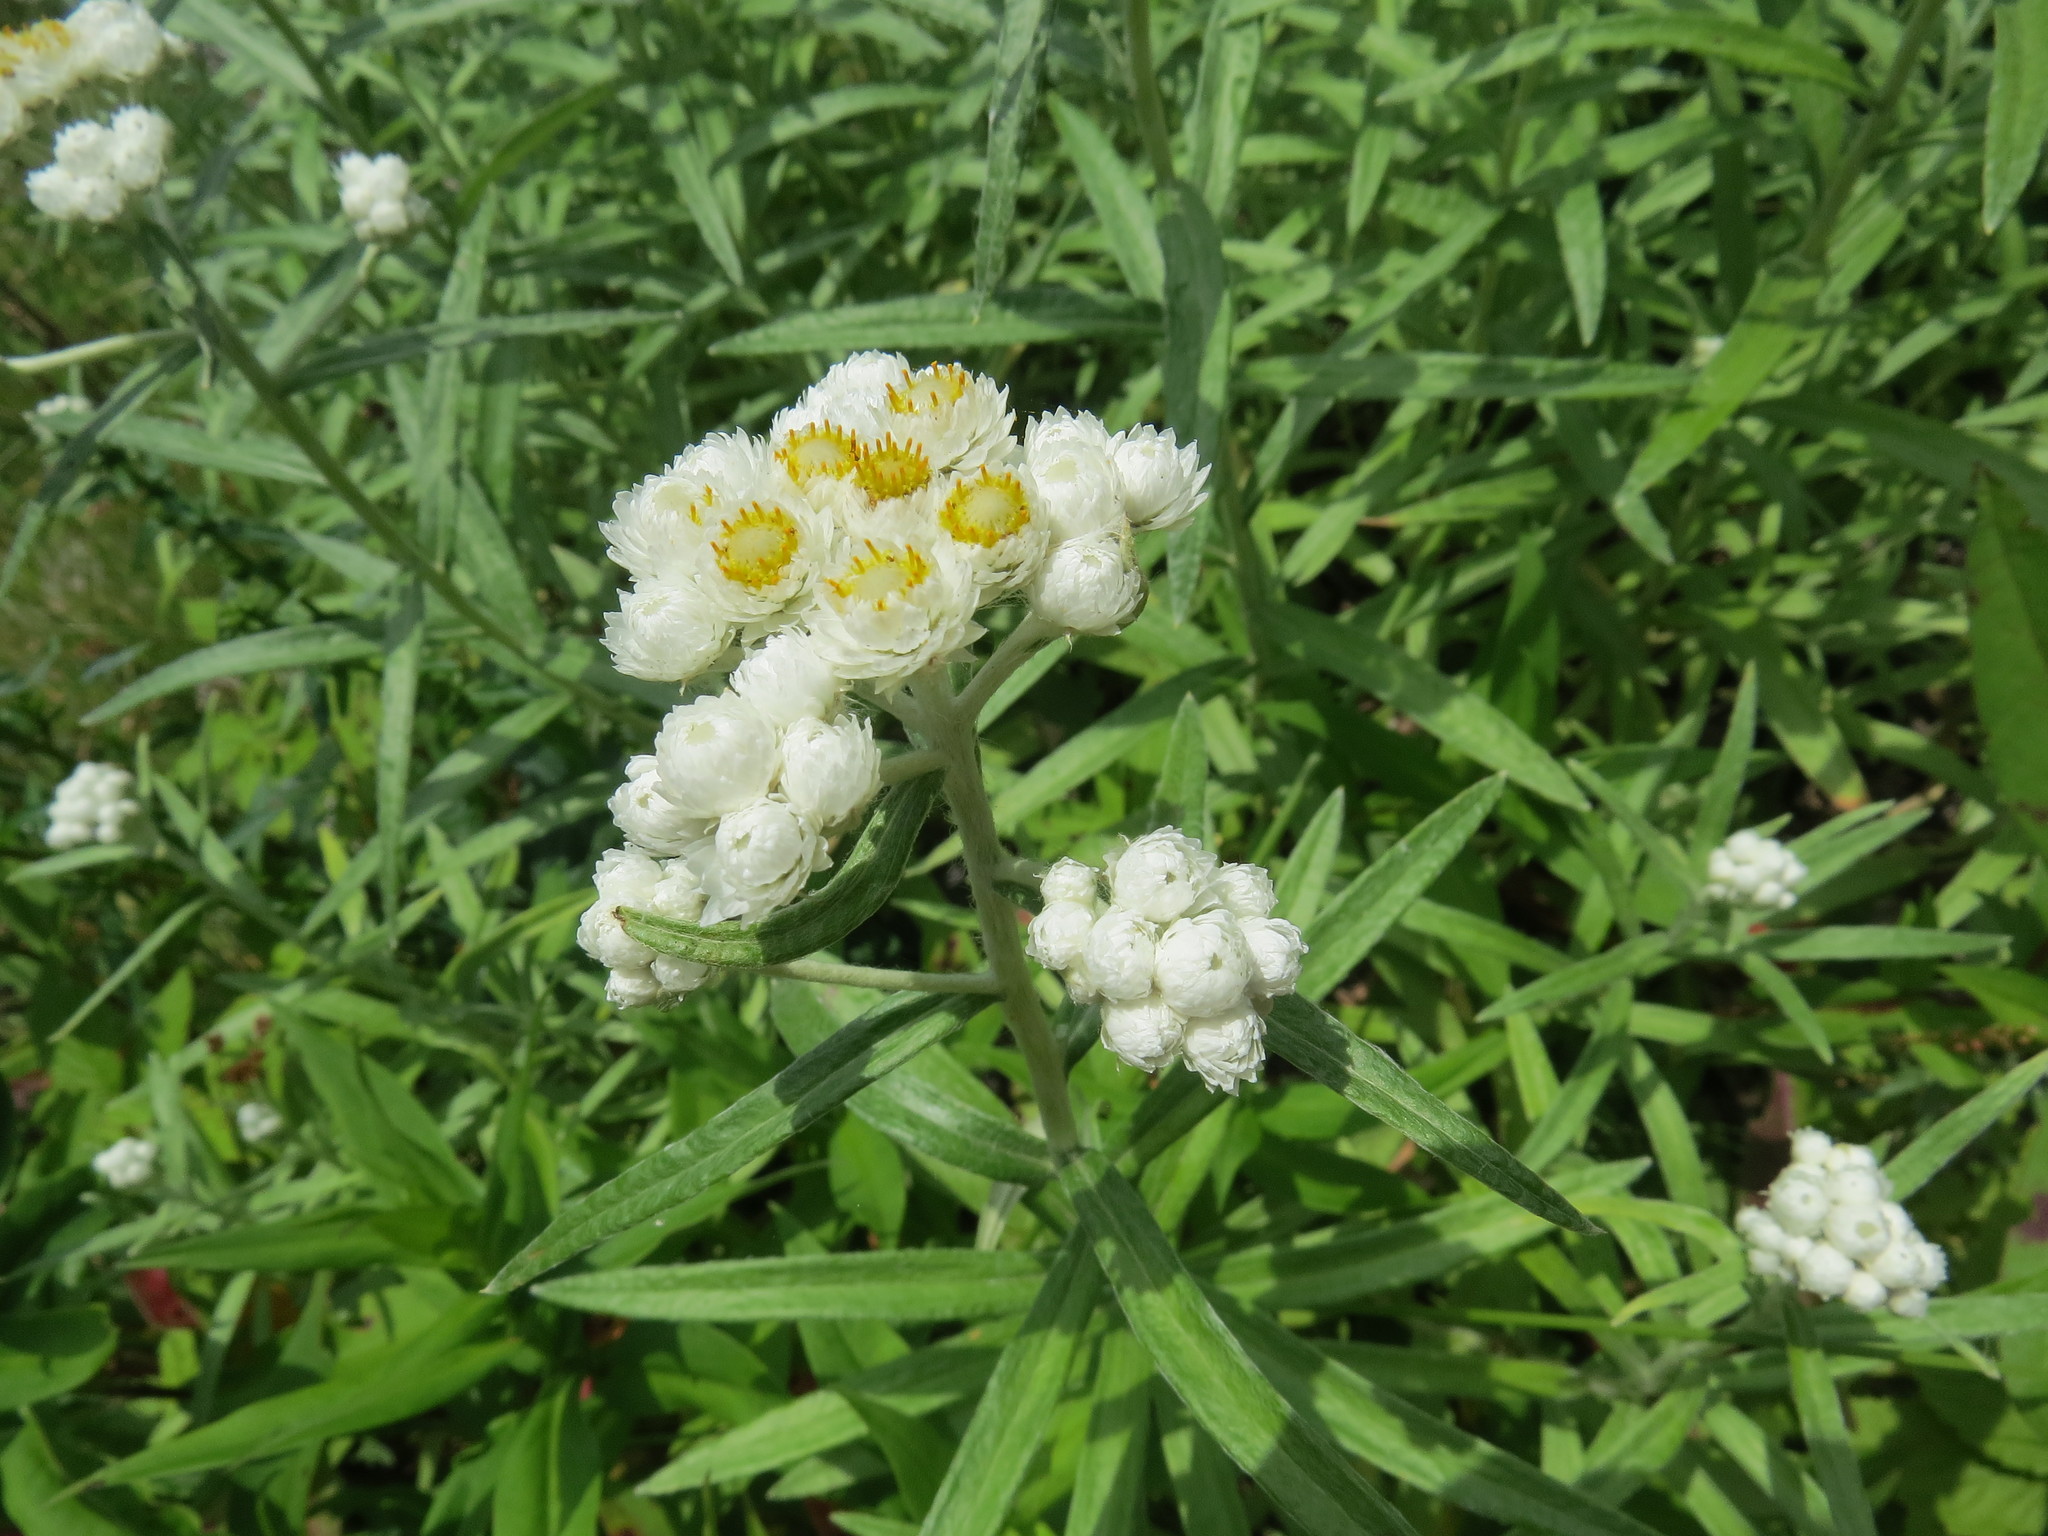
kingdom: Plantae
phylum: Tracheophyta
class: Magnoliopsida
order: Asterales
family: Asteraceae
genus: Anaphalis
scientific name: Anaphalis margaritacea
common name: Pearly everlasting
